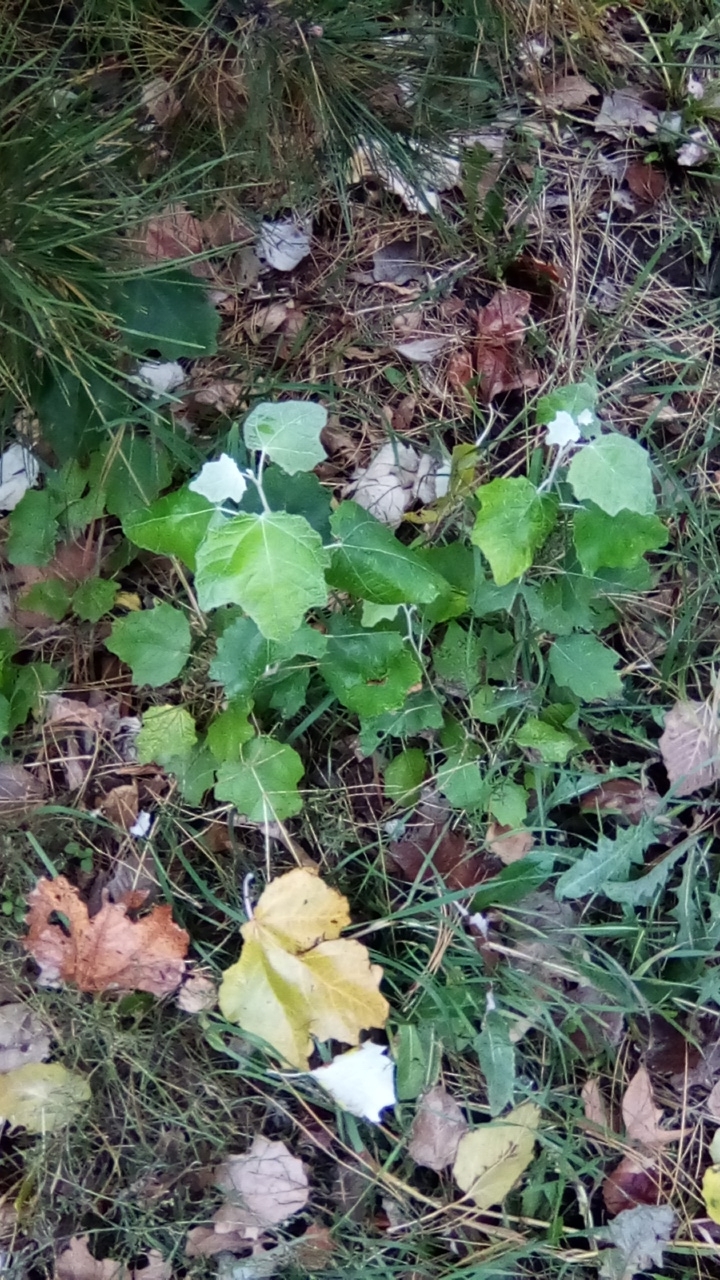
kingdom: Plantae
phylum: Tracheophyta
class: Magnoliopsida
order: Malpighiales
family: Salicaceae
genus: Populus
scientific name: Populus alba
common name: White poplar
